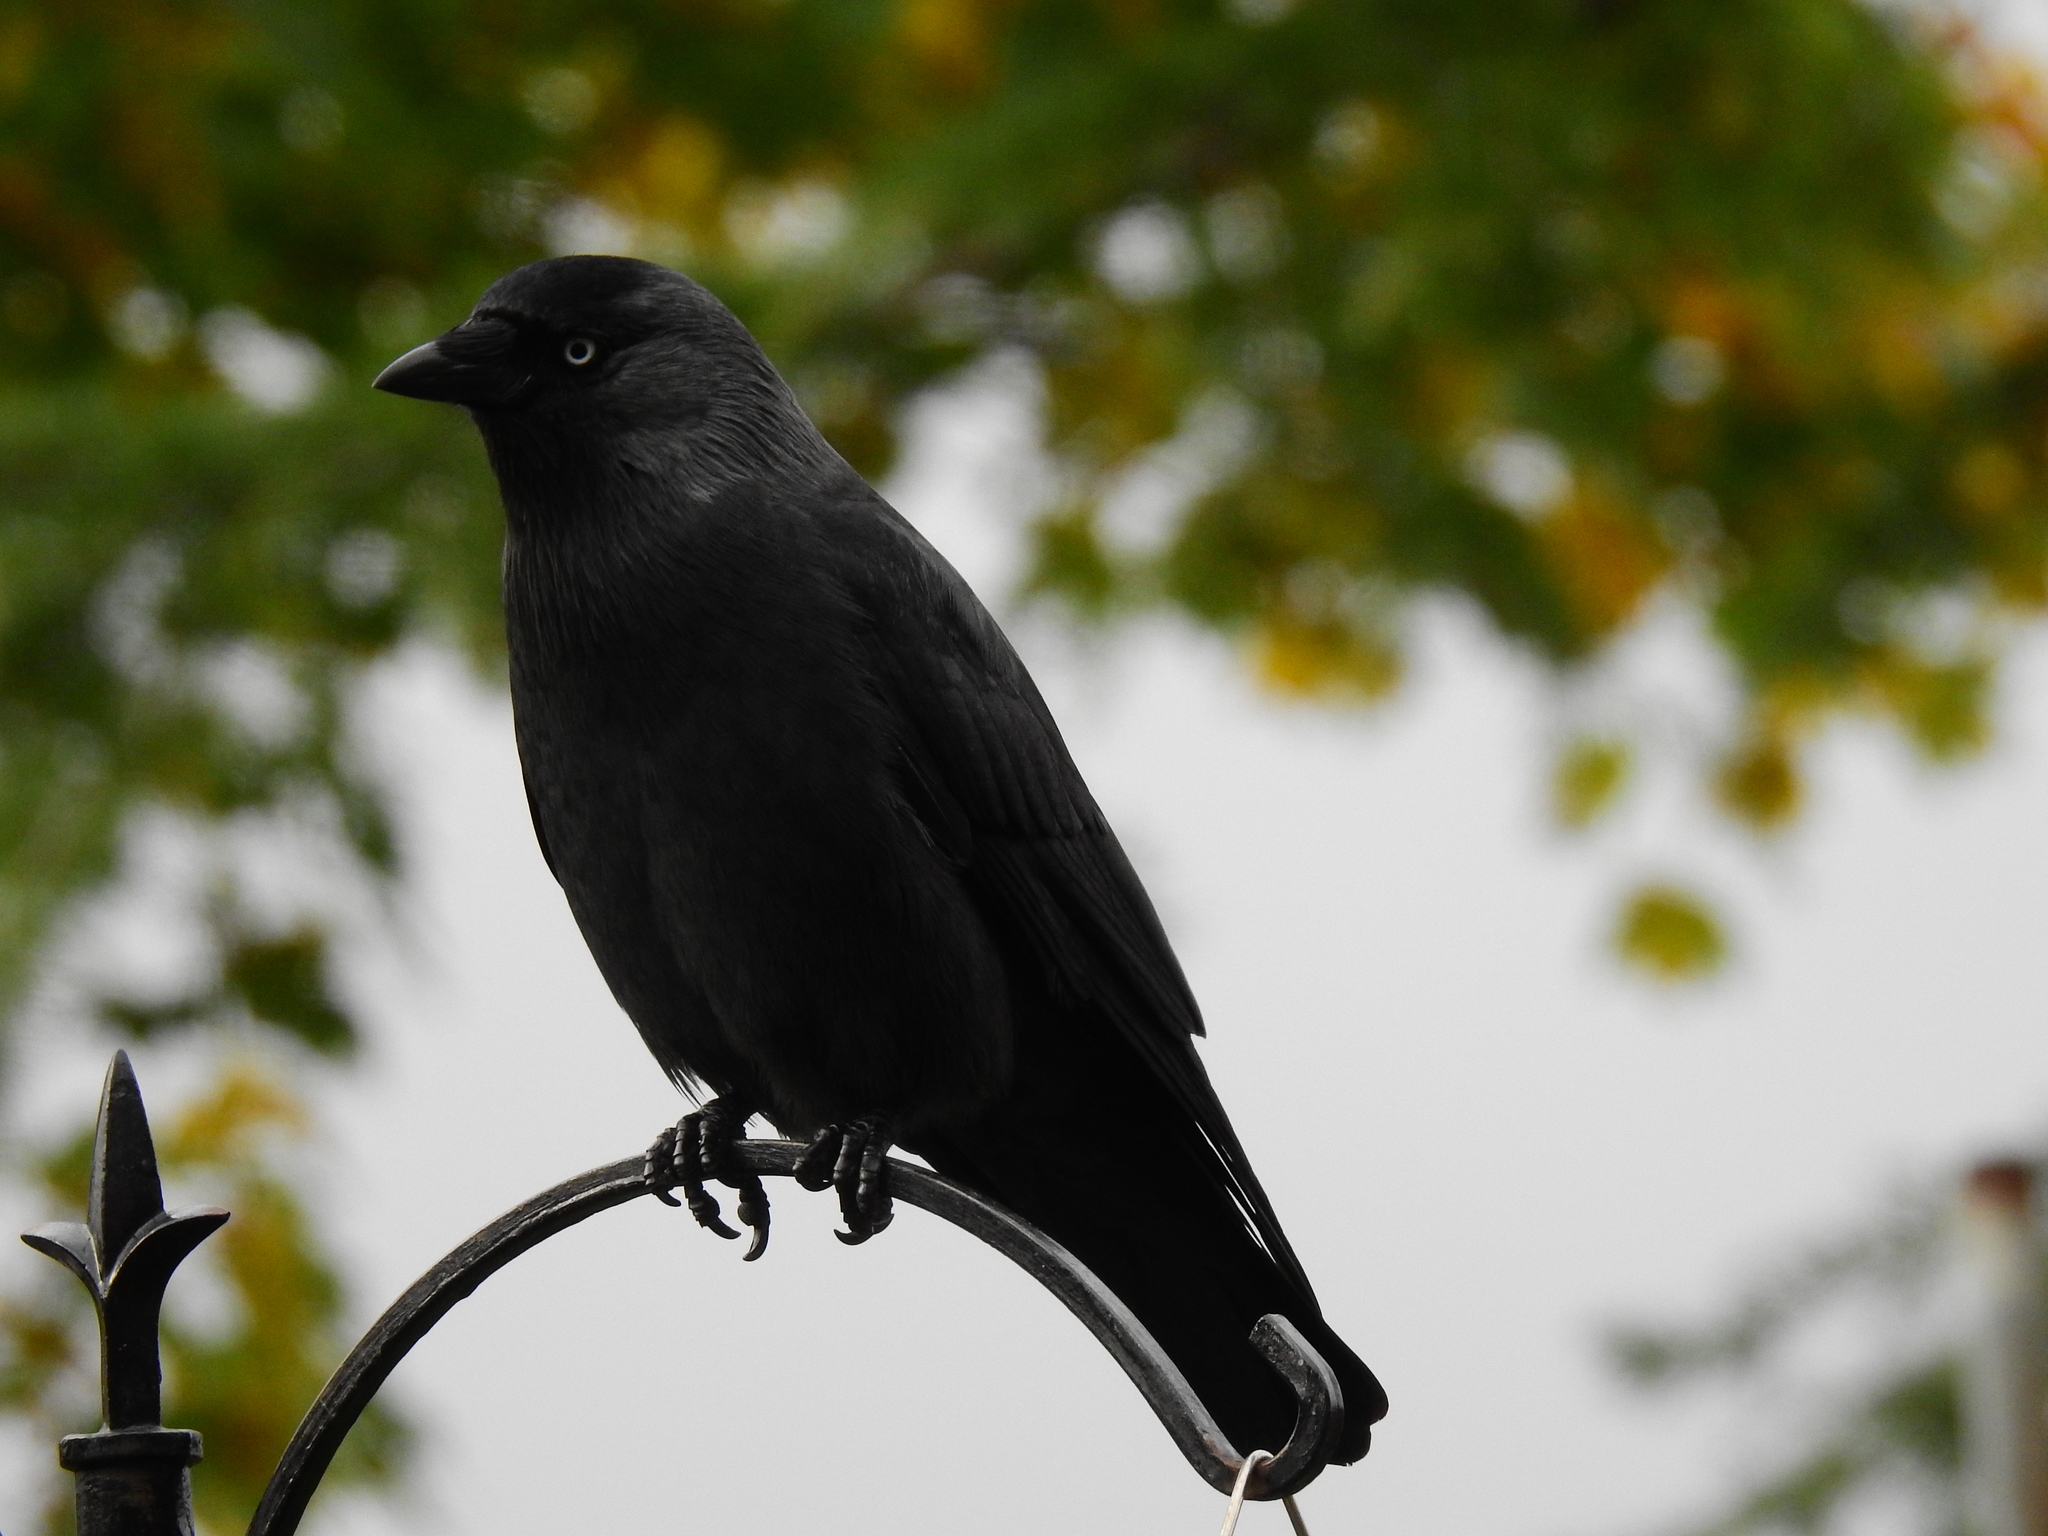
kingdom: Animalia
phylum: Chordata
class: Aves
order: Passeriformes
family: Corvidae
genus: Coloeus
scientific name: Coloeus monedula
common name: Western jackdaw
